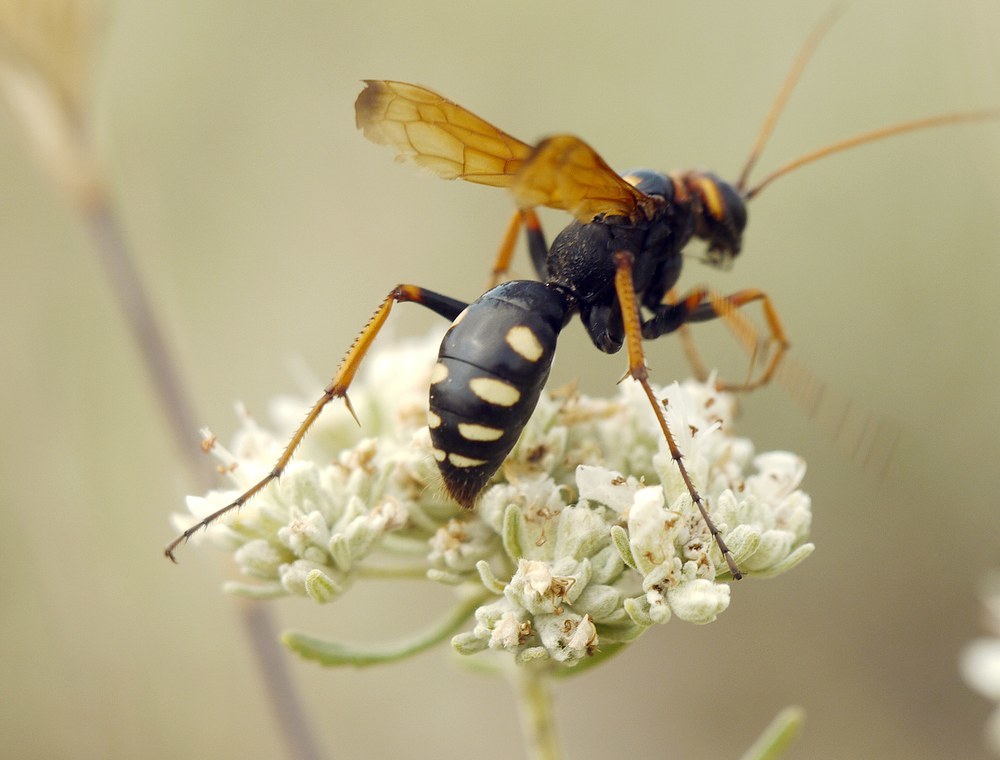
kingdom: Animalia
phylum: Arthropoda
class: Insecta
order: Hymenoptera
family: Pompilidae
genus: Cryptocheilus
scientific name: Cryptocheilus octomaculatus
